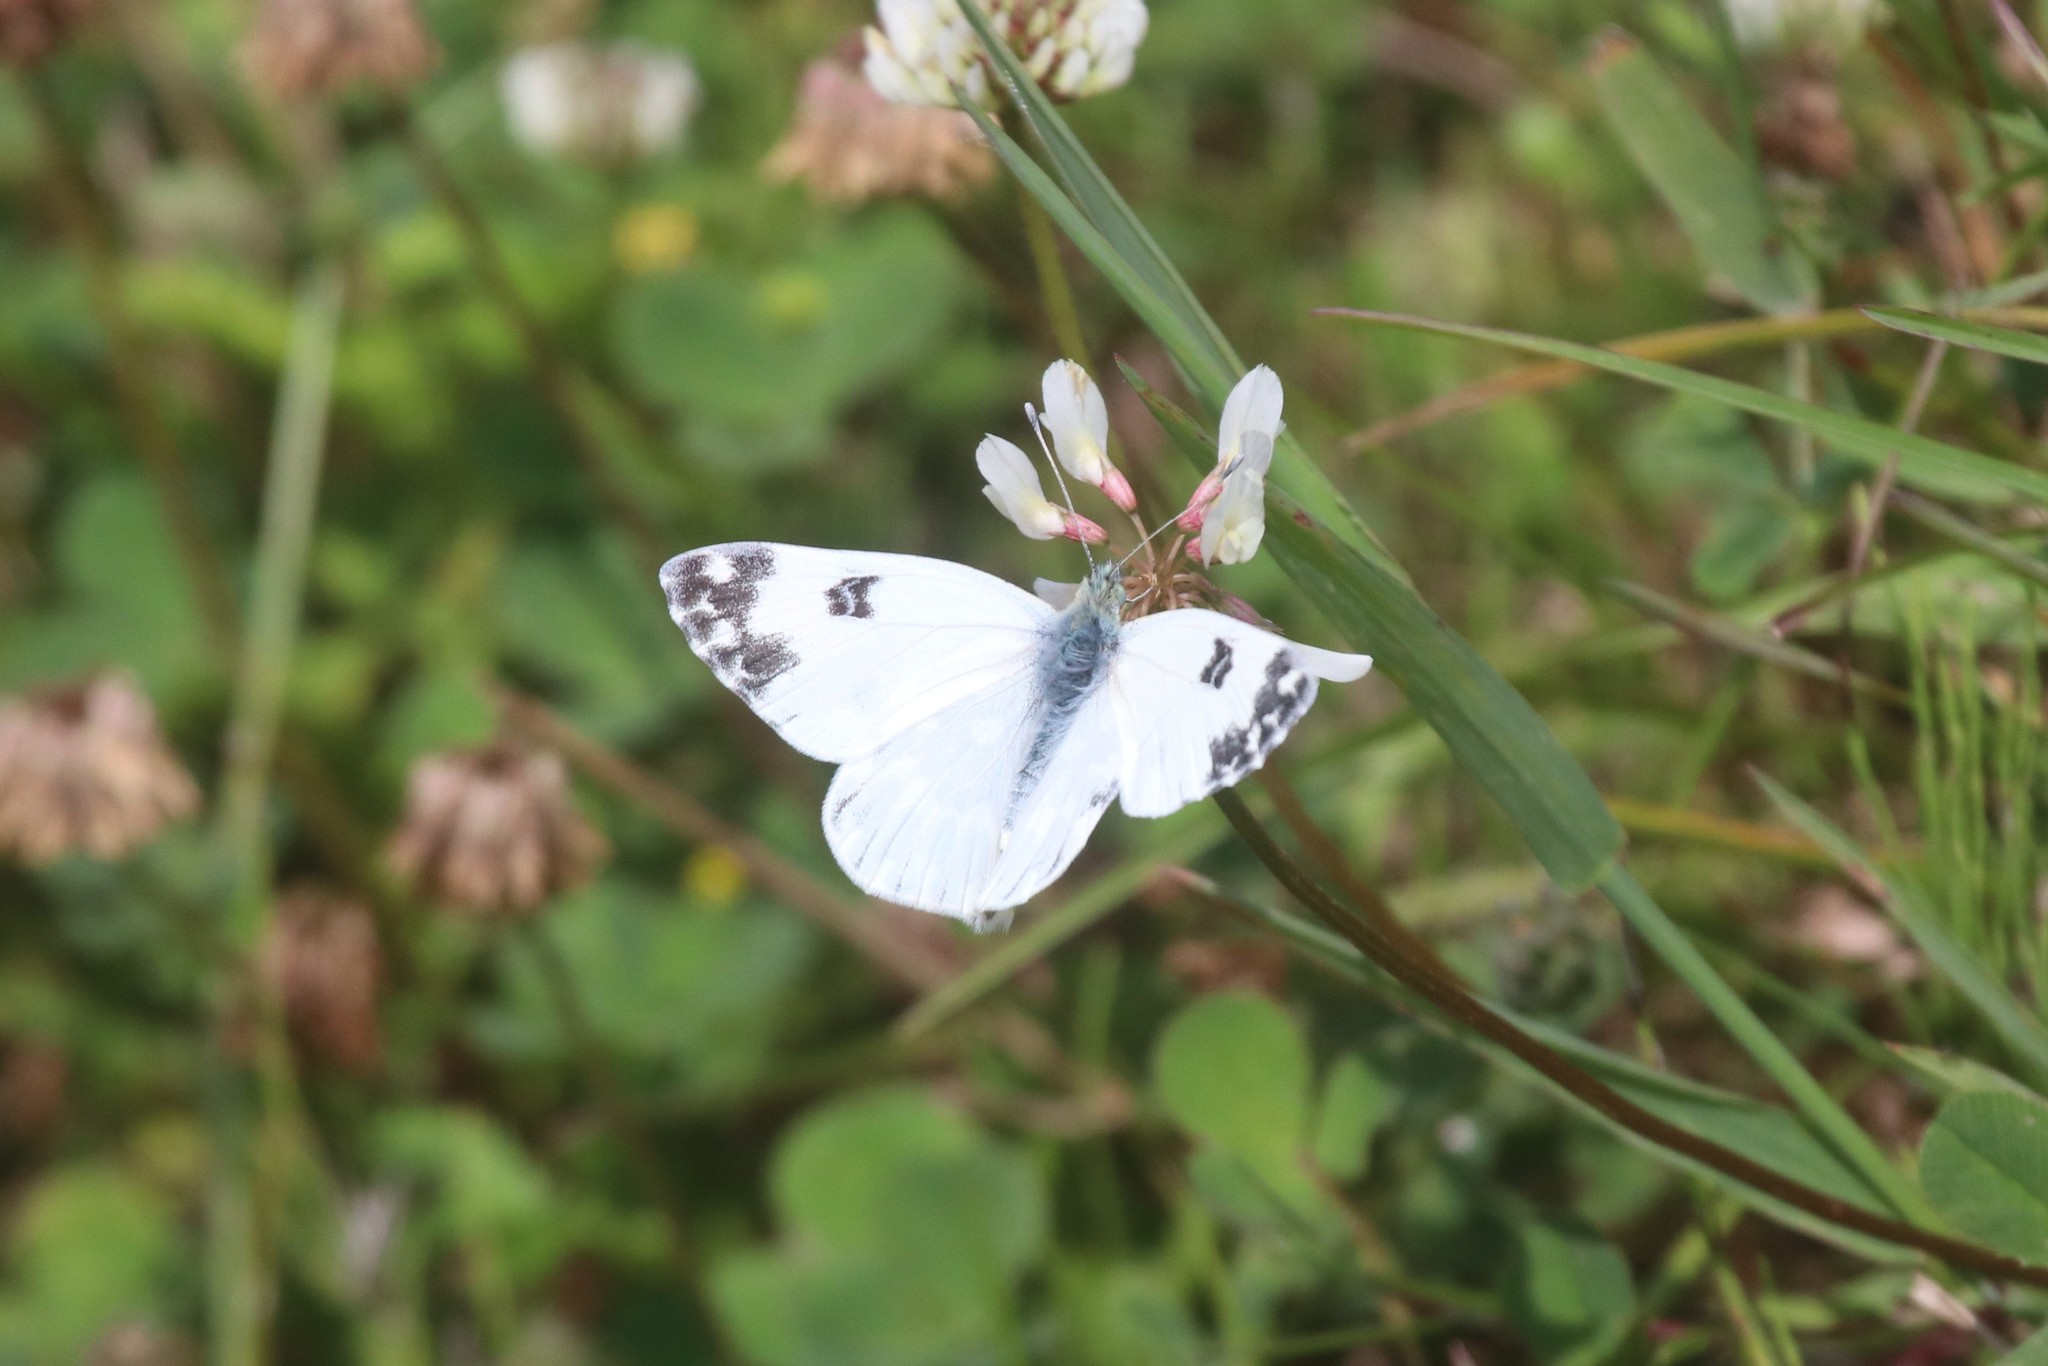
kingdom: Animalia
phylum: Arthropoda
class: Insecta
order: Lepidoptera
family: Pieridae
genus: Pontia
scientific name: Pontia edusa
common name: Eastern bath white
